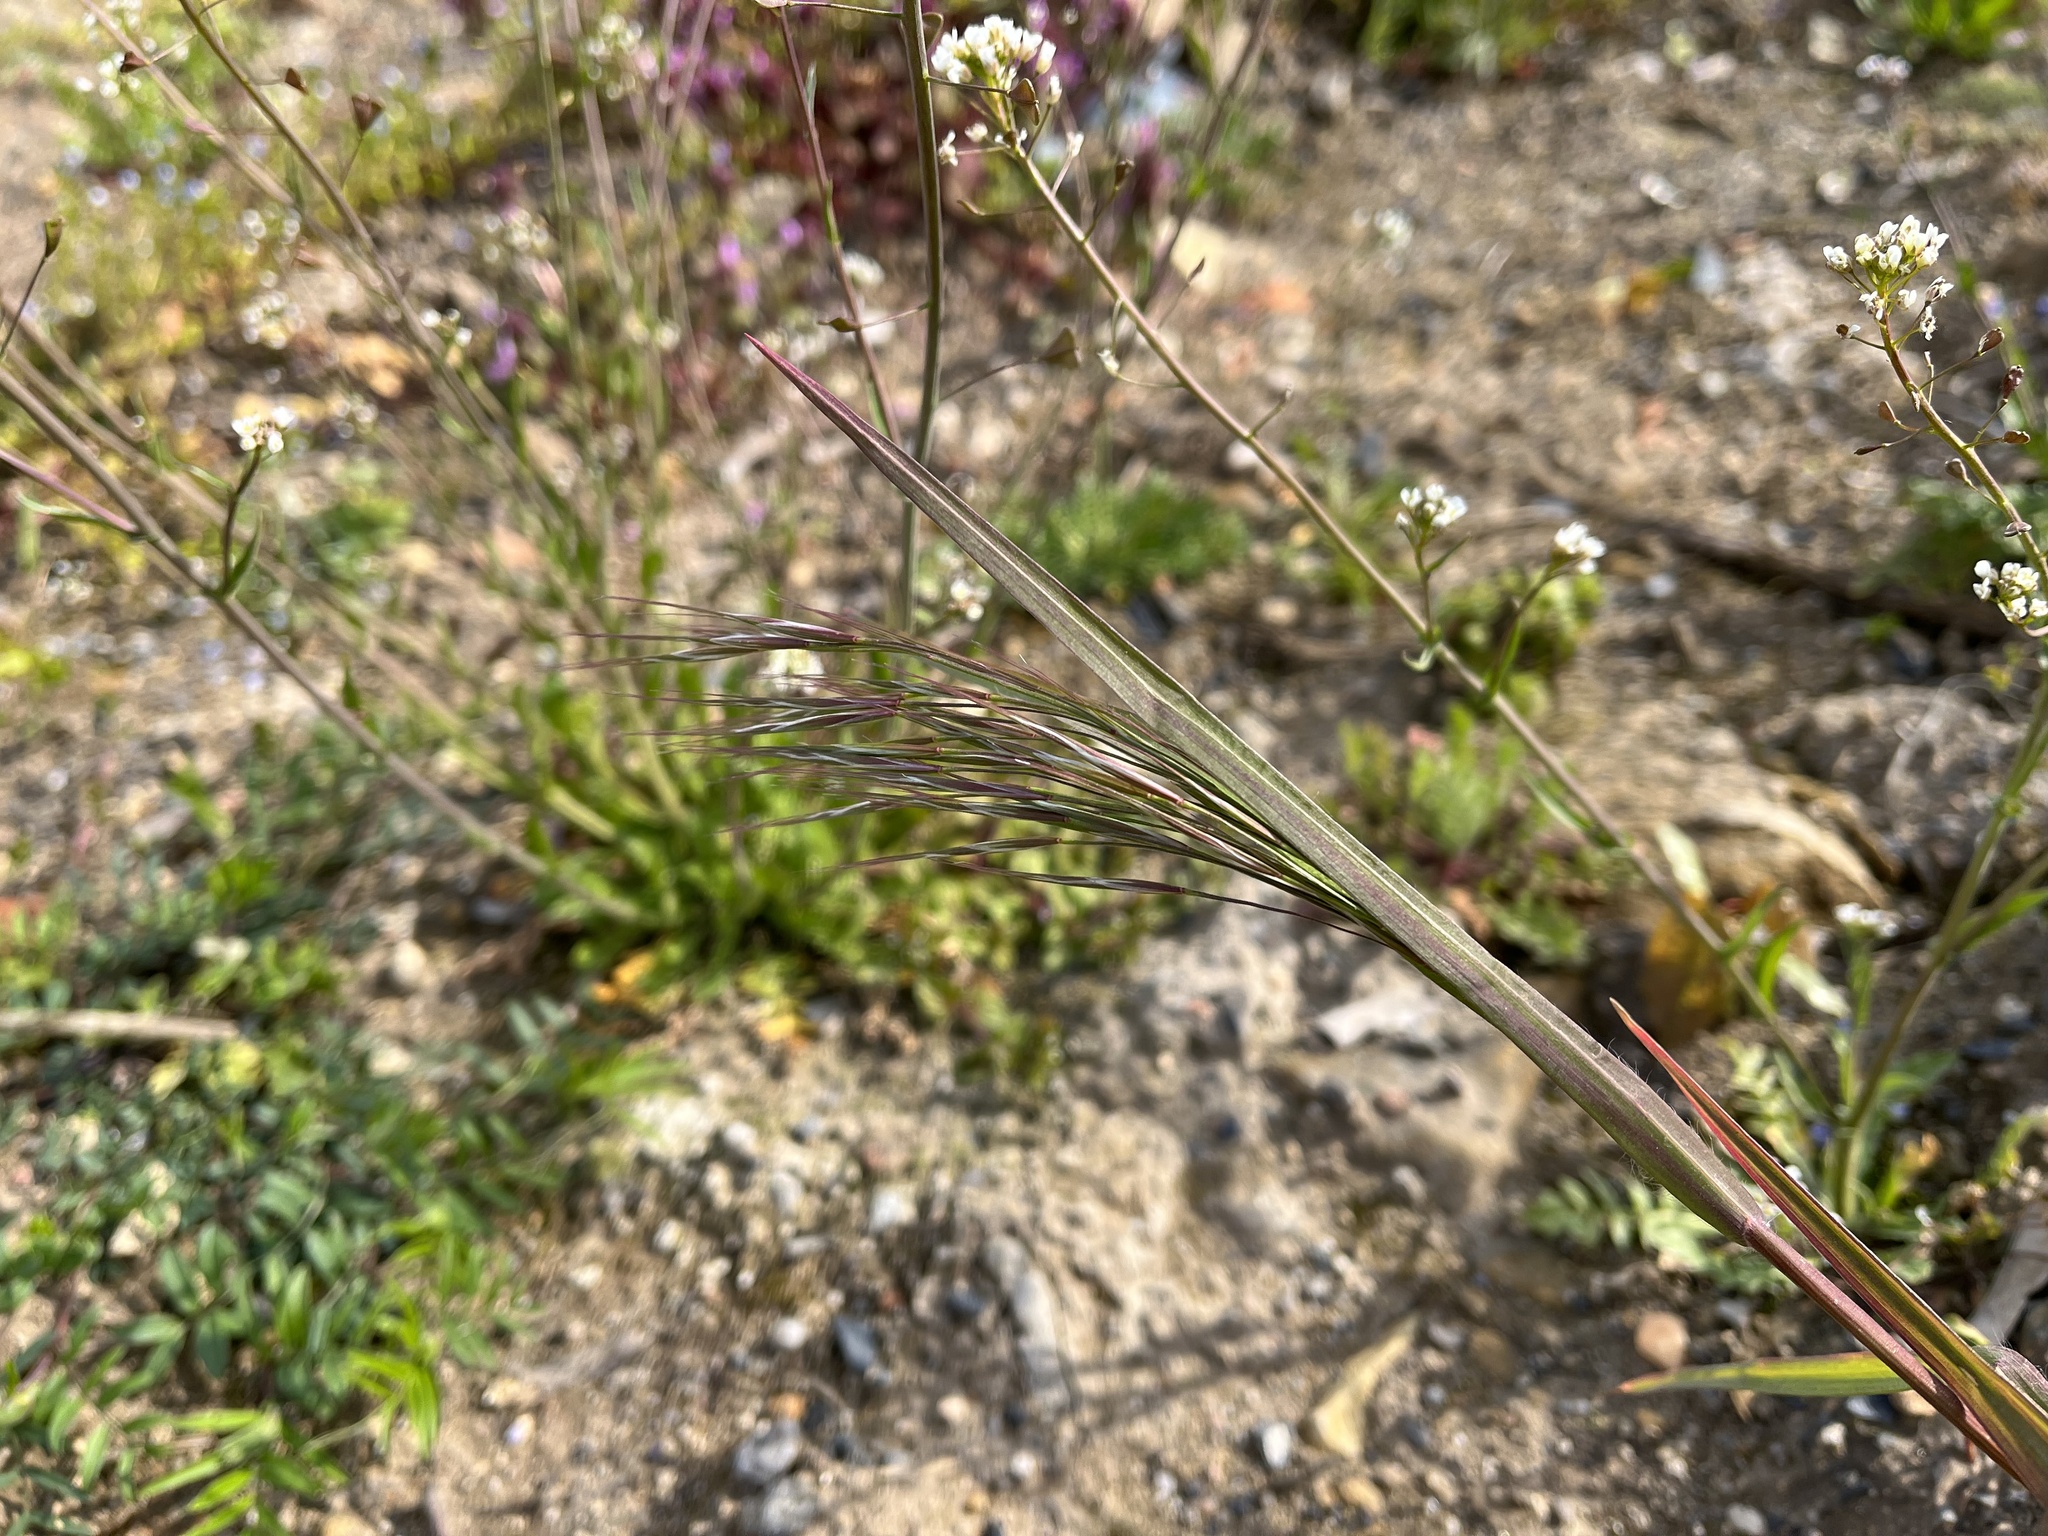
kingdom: Plantae
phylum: Tracheophyta
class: Liliopsida
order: Poales
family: Poaceae
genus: Bromus
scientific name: Bromus sterilis
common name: Poverty brome
